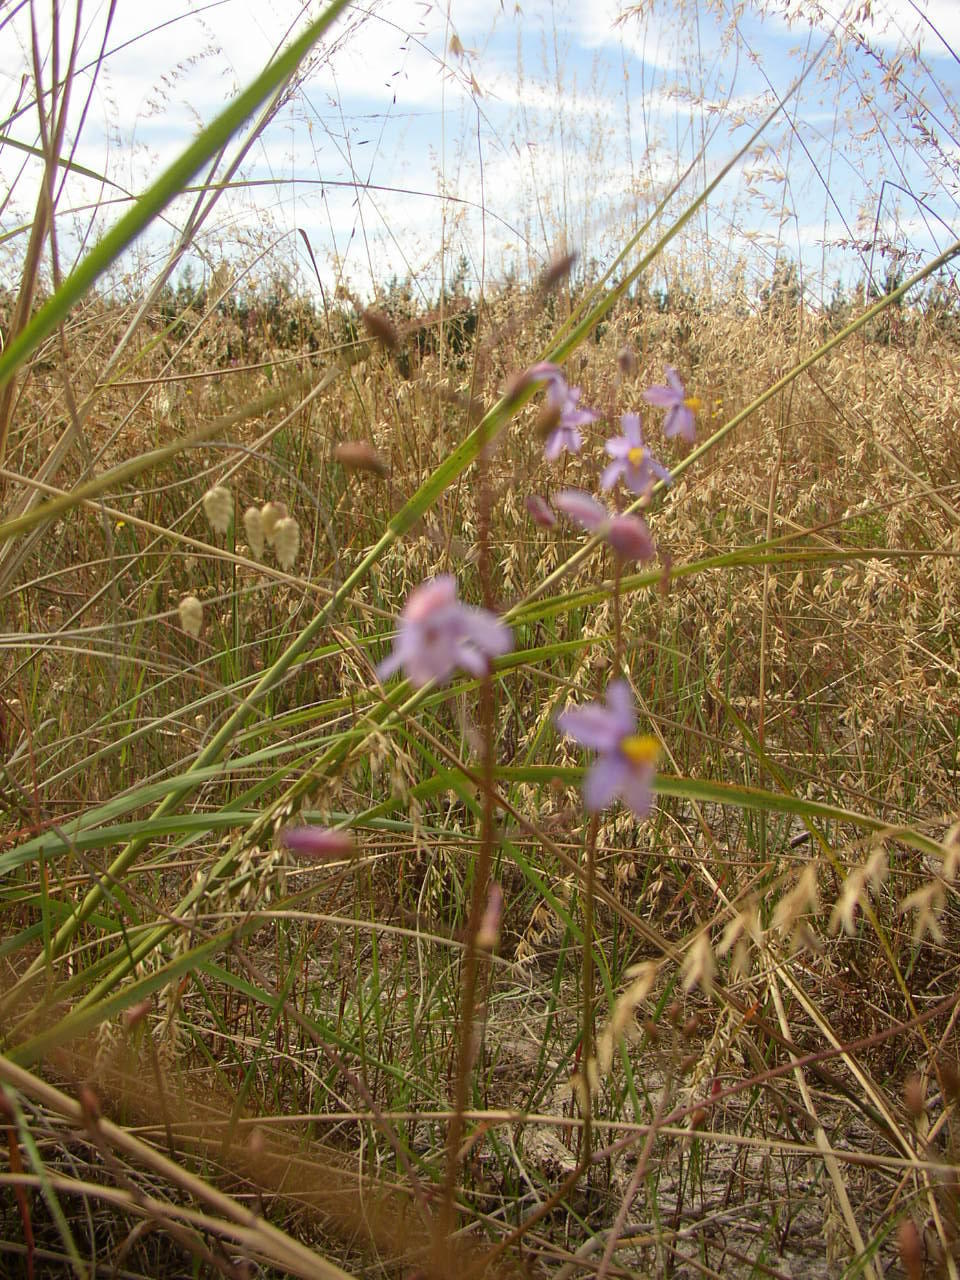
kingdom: Plantae
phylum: Tracheophyta
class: Liliopsida
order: Asparagales
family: Tecophilaeaceae
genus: Cyanella
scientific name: Cyanella hyacinthoides
